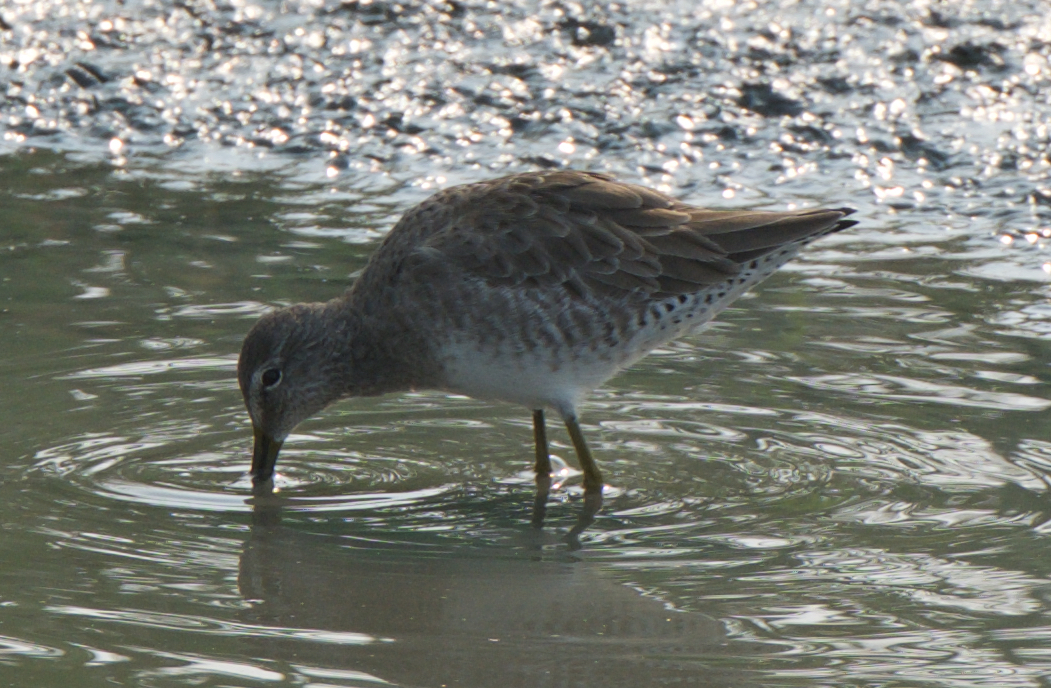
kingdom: Animalia
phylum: Chordata
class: Aves
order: Charadriiformes
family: Scolopacidae
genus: Limnodromus
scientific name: Limnodromus scolopaceus
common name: Long-billed dowitcher
